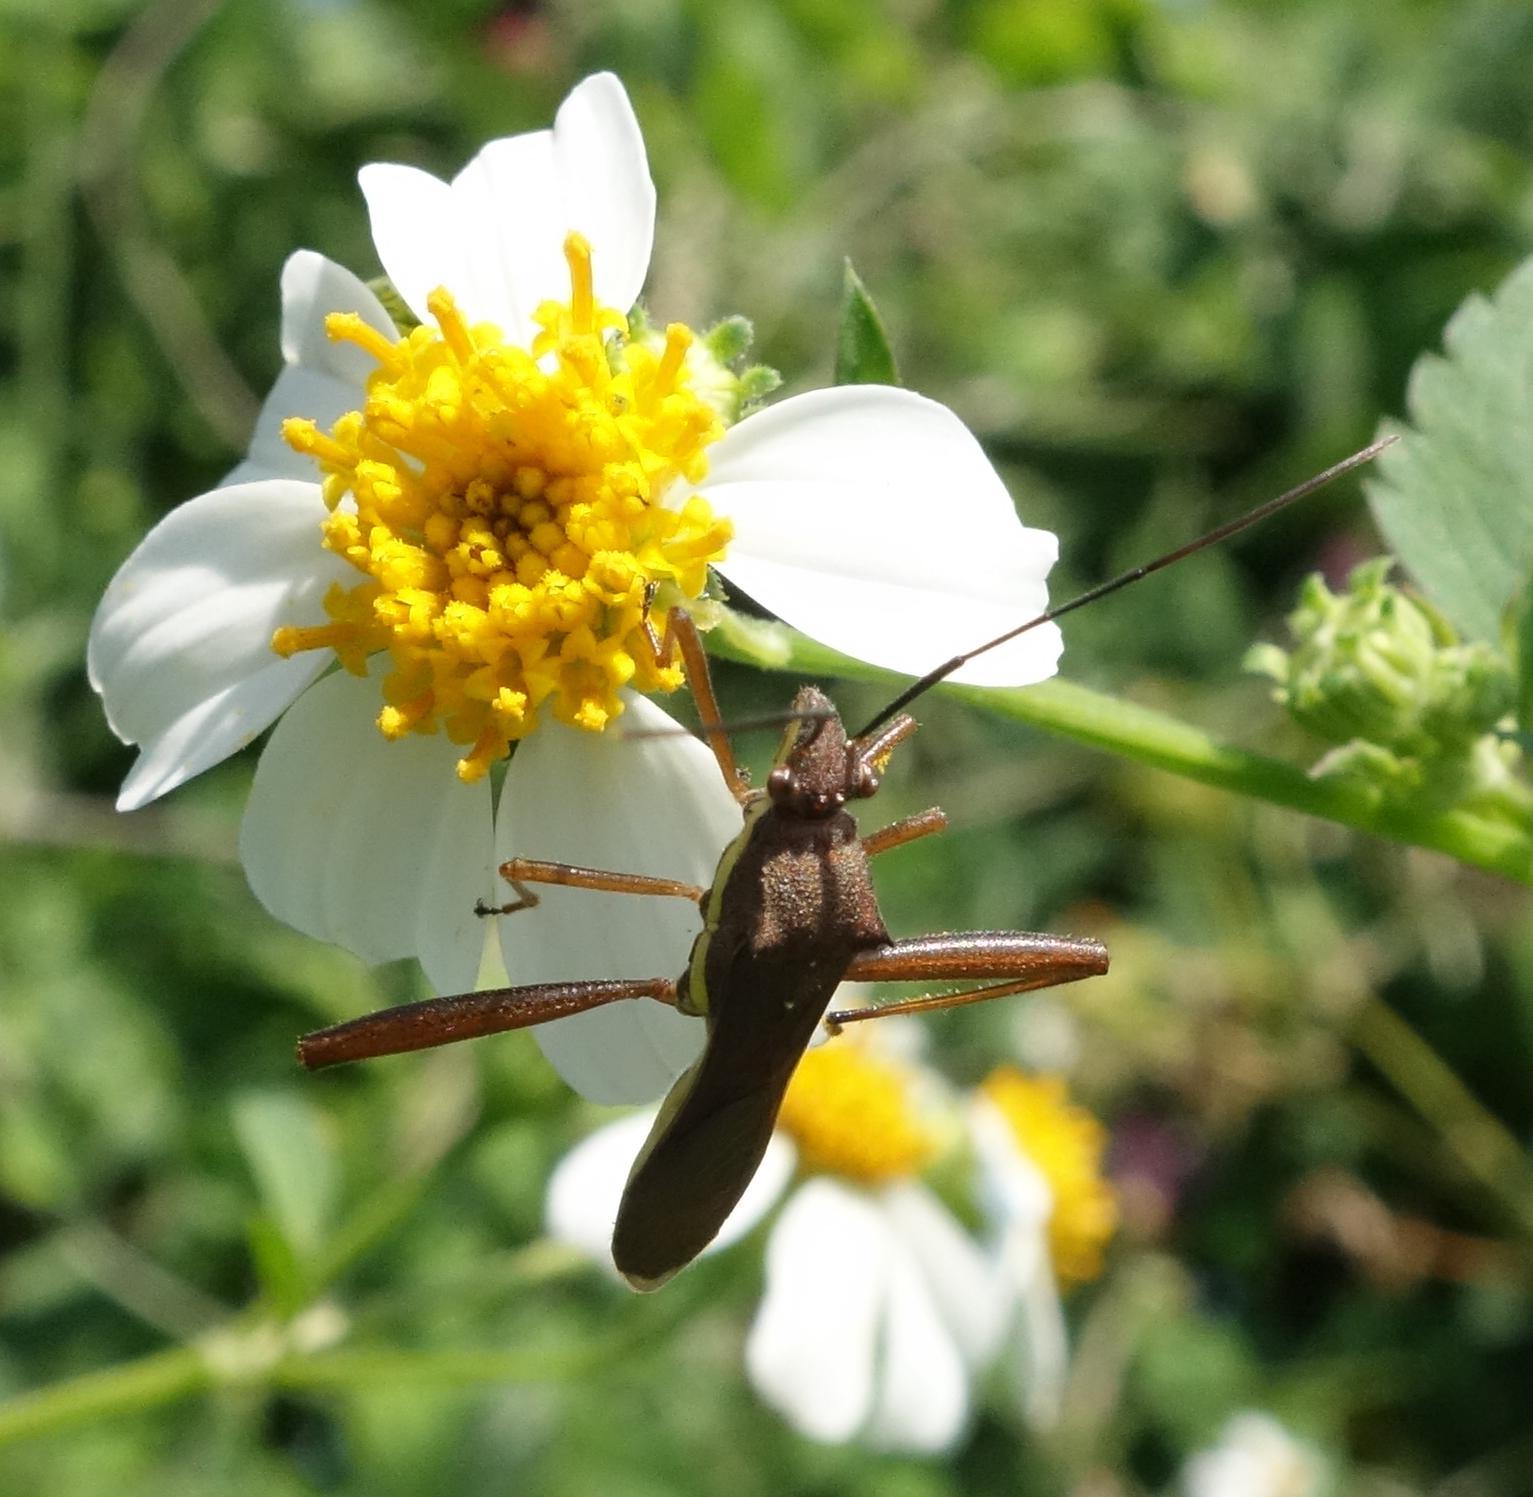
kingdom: Animalia
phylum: Arthropoda
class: Insecta
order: Hemiptera
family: Alydidae
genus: Riptortus
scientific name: Riptortus linearis
